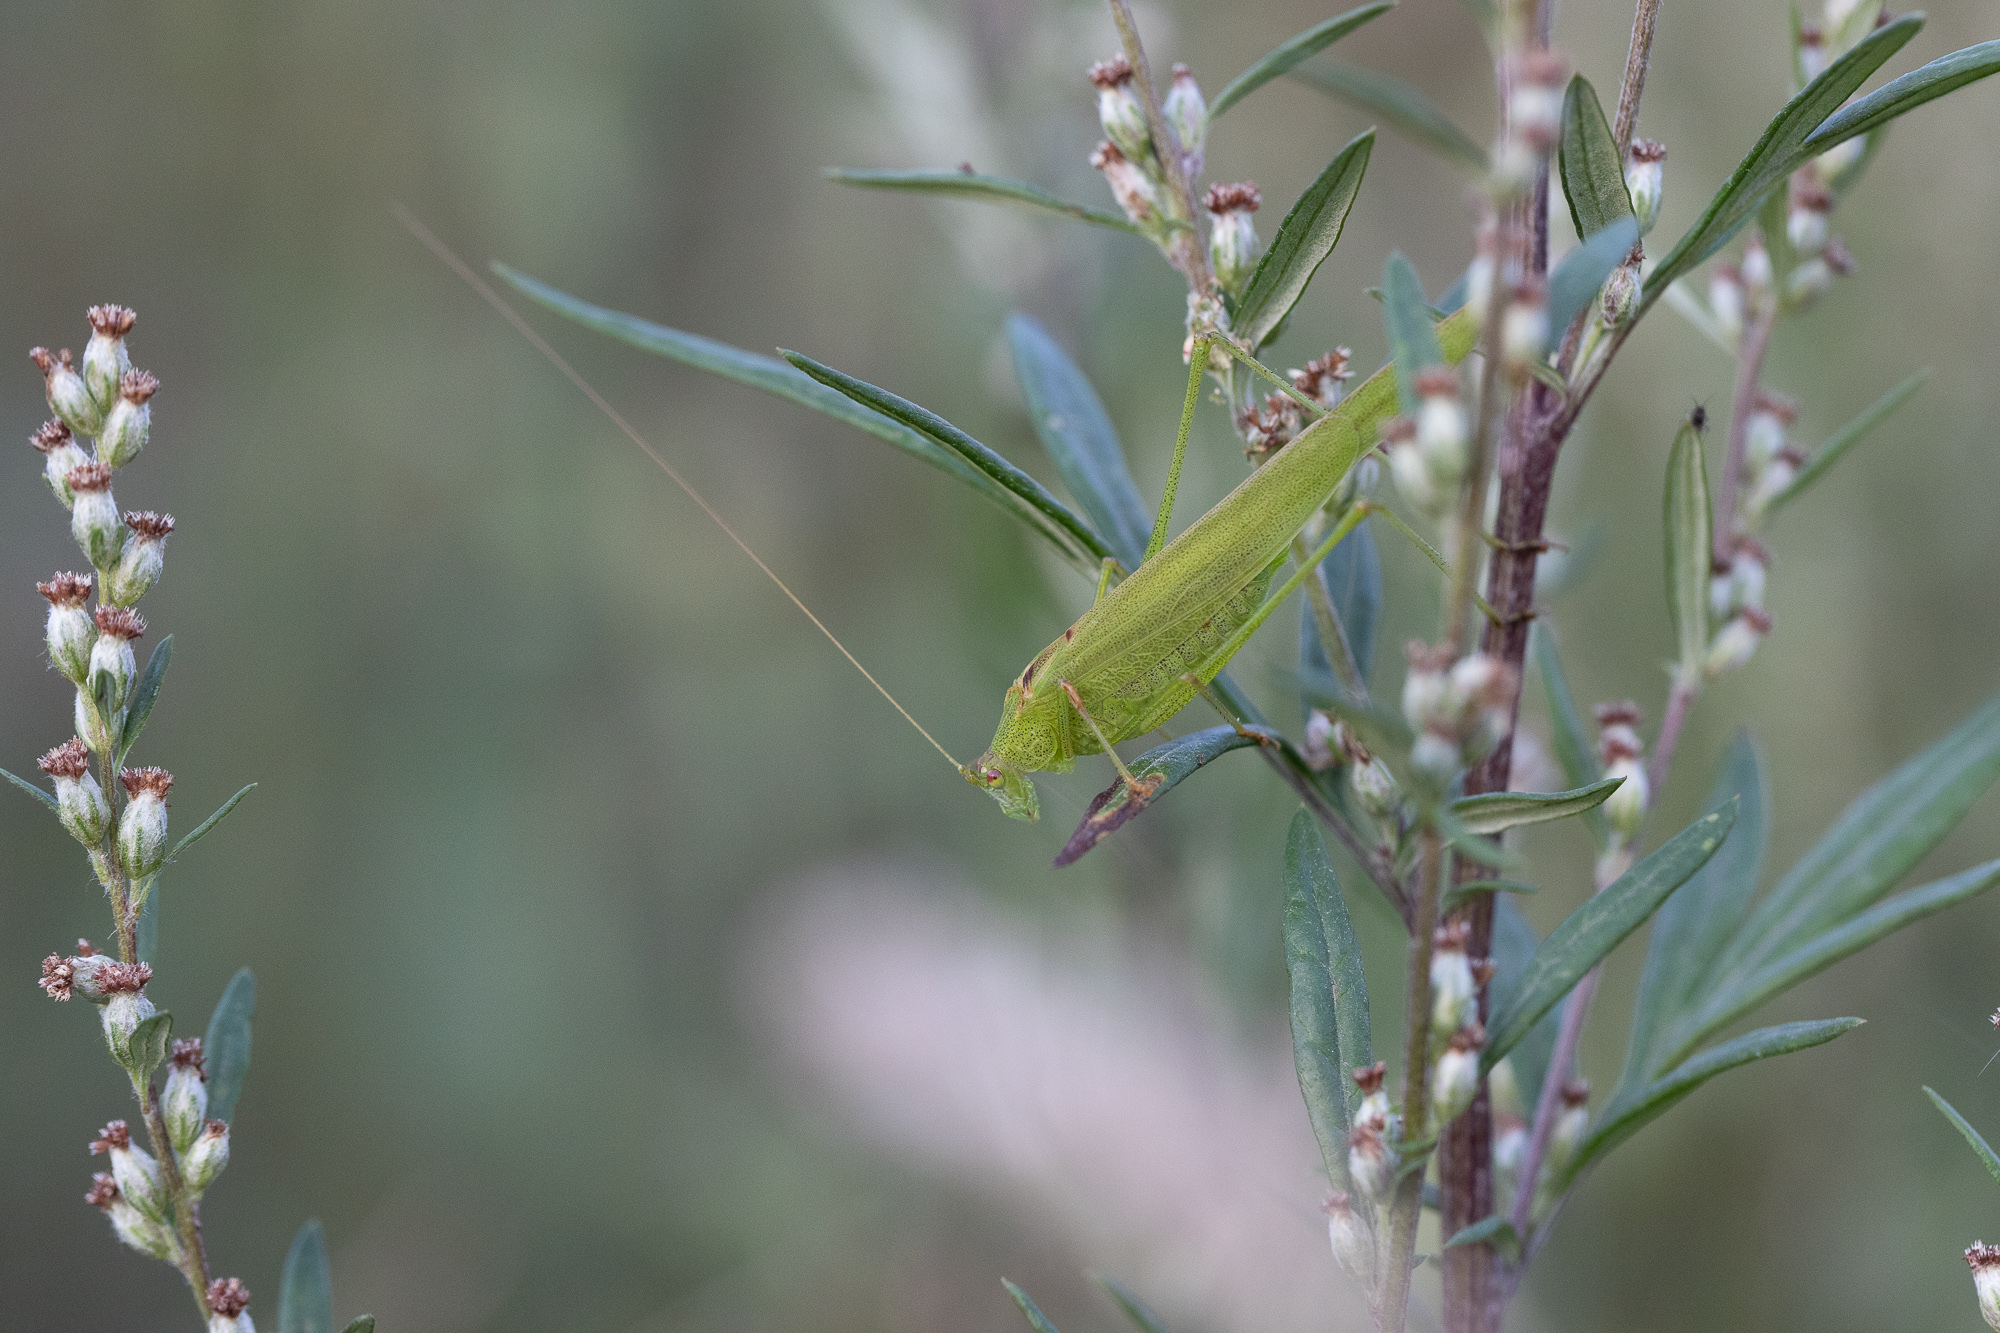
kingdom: Animalia
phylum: Arthropoda
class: Insecta
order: Orthoptera
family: Tettigoniidae
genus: Phaneroptera
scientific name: Phaneroptera falcata
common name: Sickle-bearing bush-cricket
